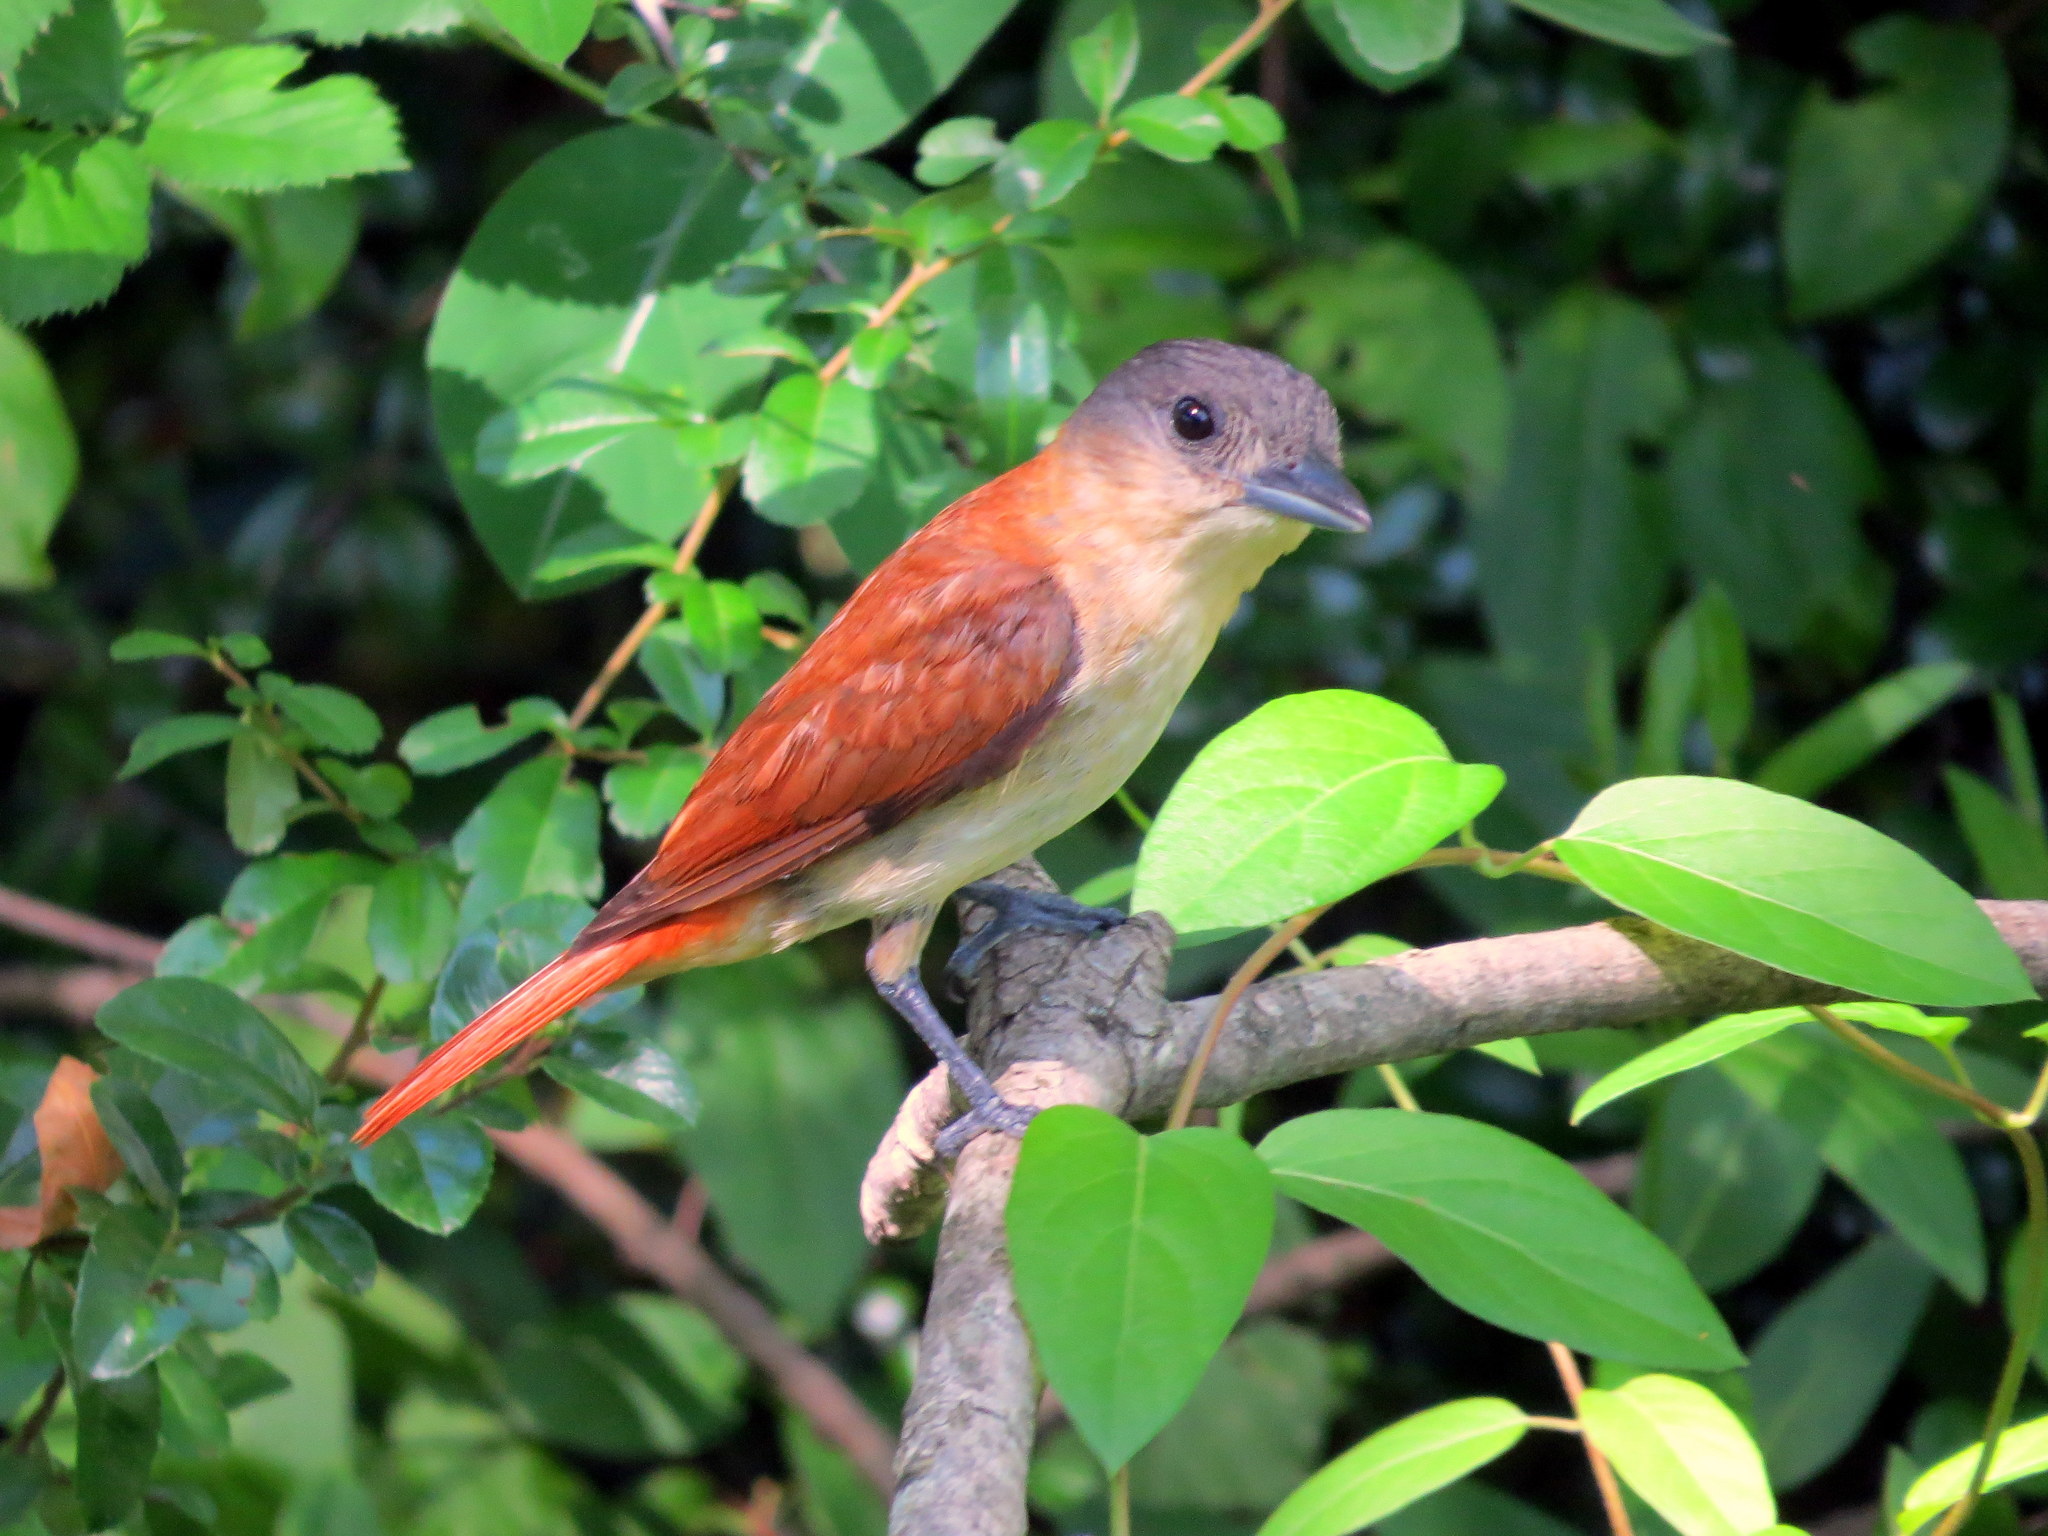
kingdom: Animalia
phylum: Chordata
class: Aves
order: Passeriformes
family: Cotingidae
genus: Pachyramphus
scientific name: Pachyramphus validus
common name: Crested becard
